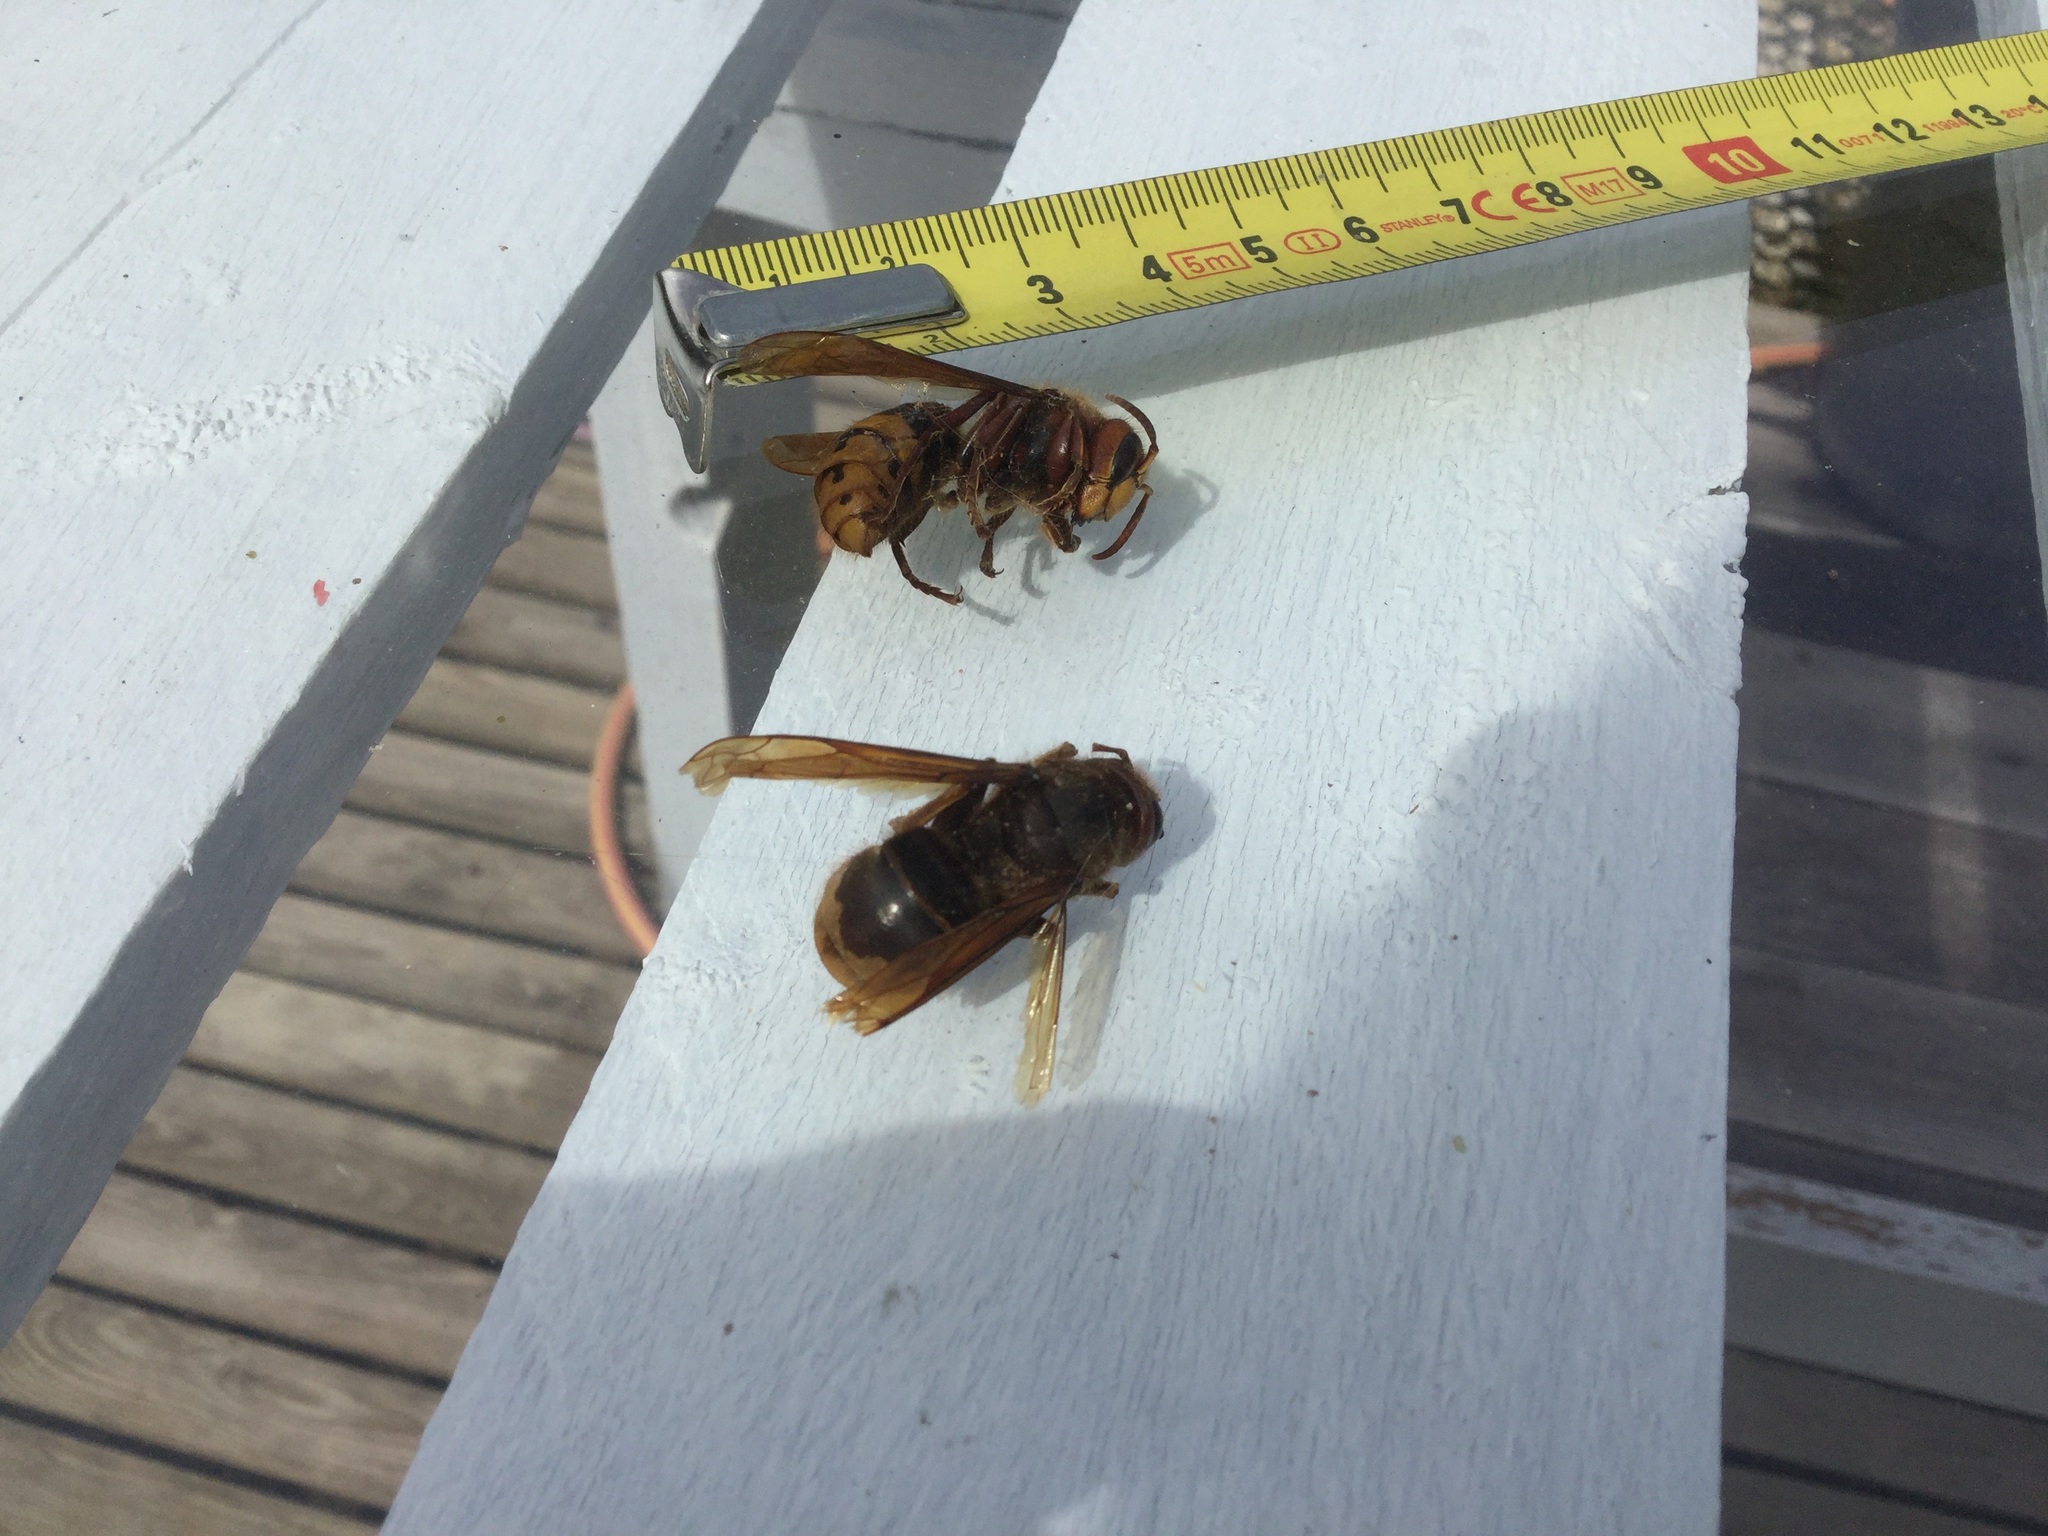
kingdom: Animalia
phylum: Arthropoda
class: Insecta
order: Hymenoptera
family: Vespidae
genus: Vespa
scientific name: Vespa crabro
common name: Hornet
